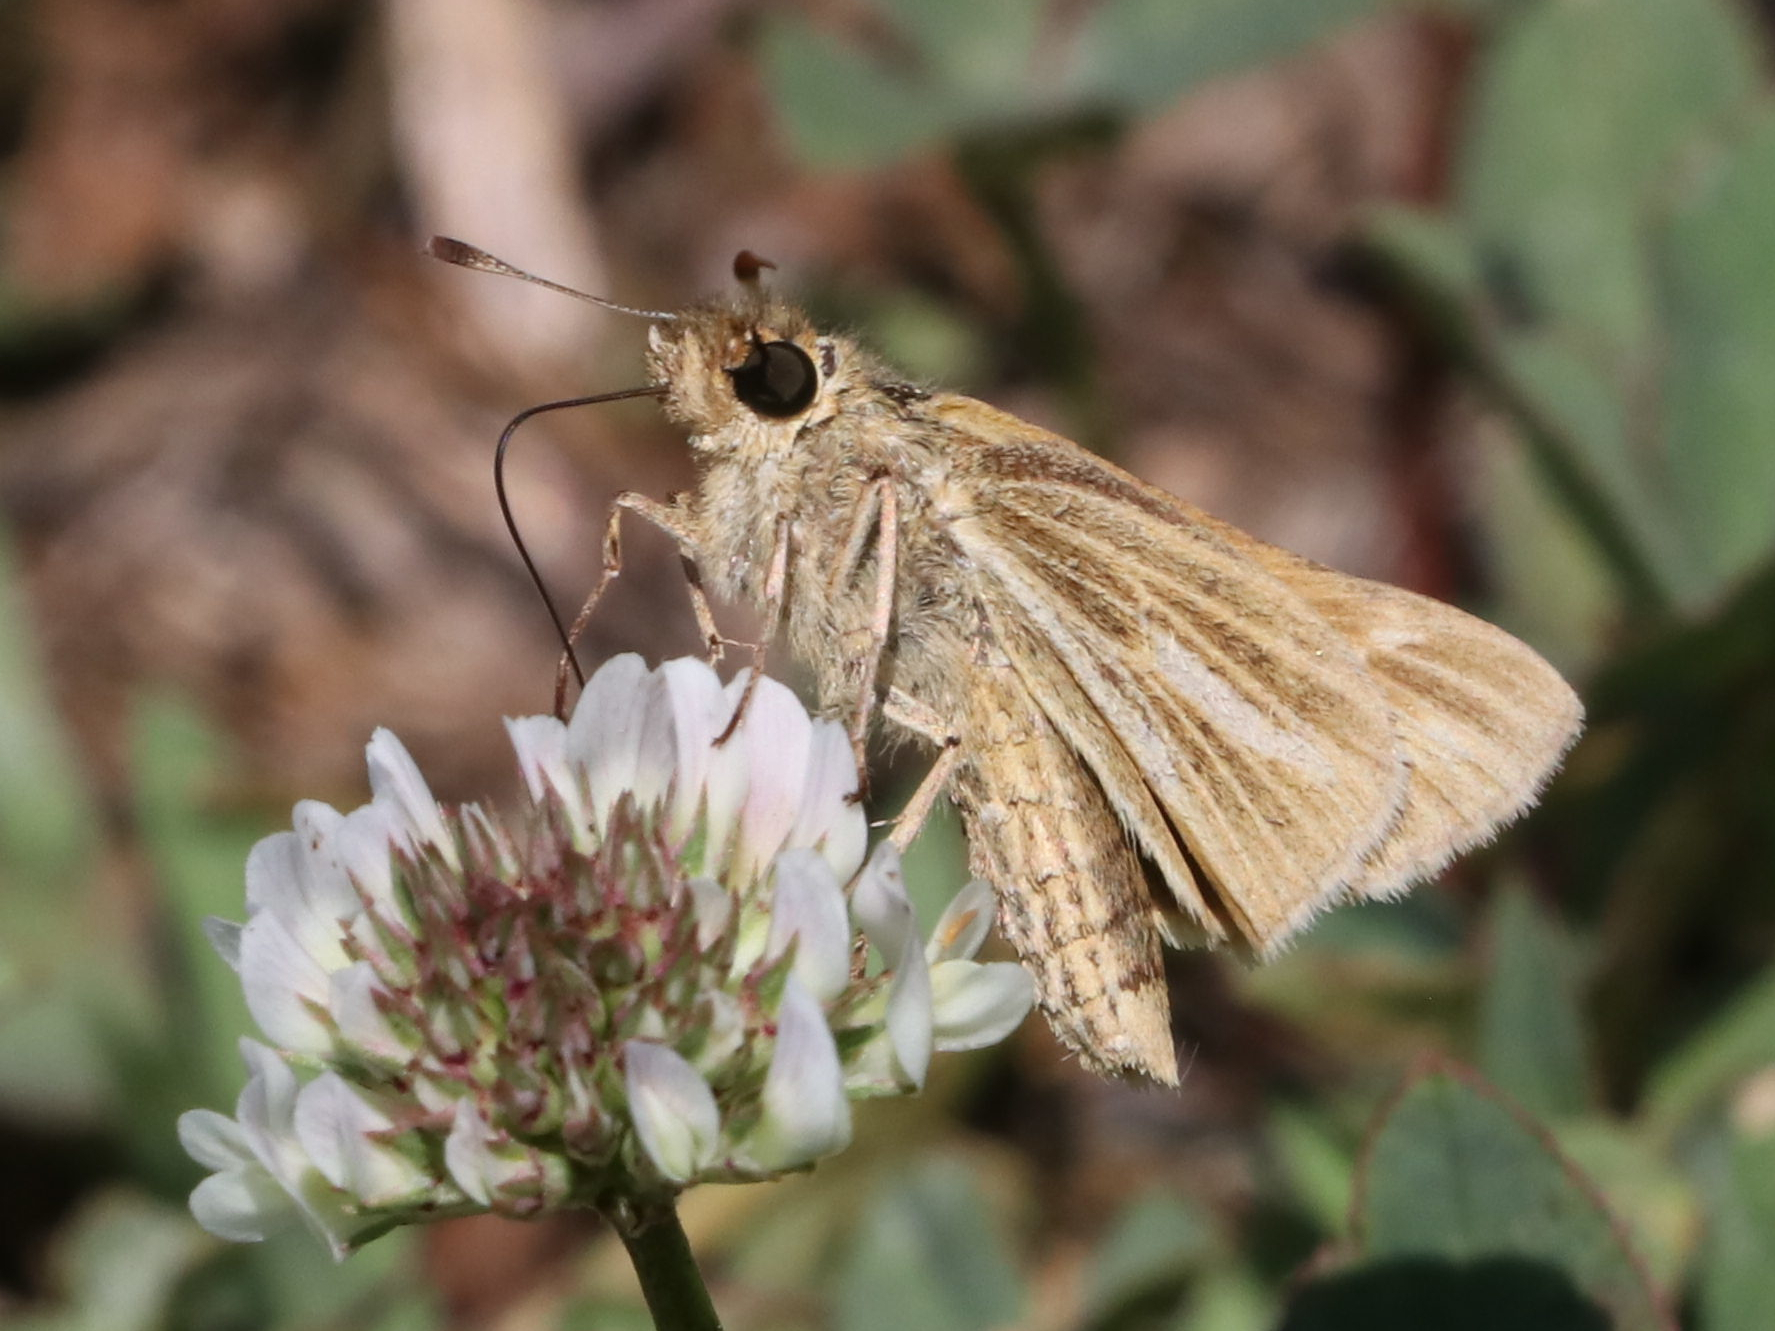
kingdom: Animalia
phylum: Arthropoda
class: Insecta
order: Lepidoptera
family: Hesperiidae
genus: Panoquina
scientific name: Panoquina panoquin
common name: Salt marsh skipper
